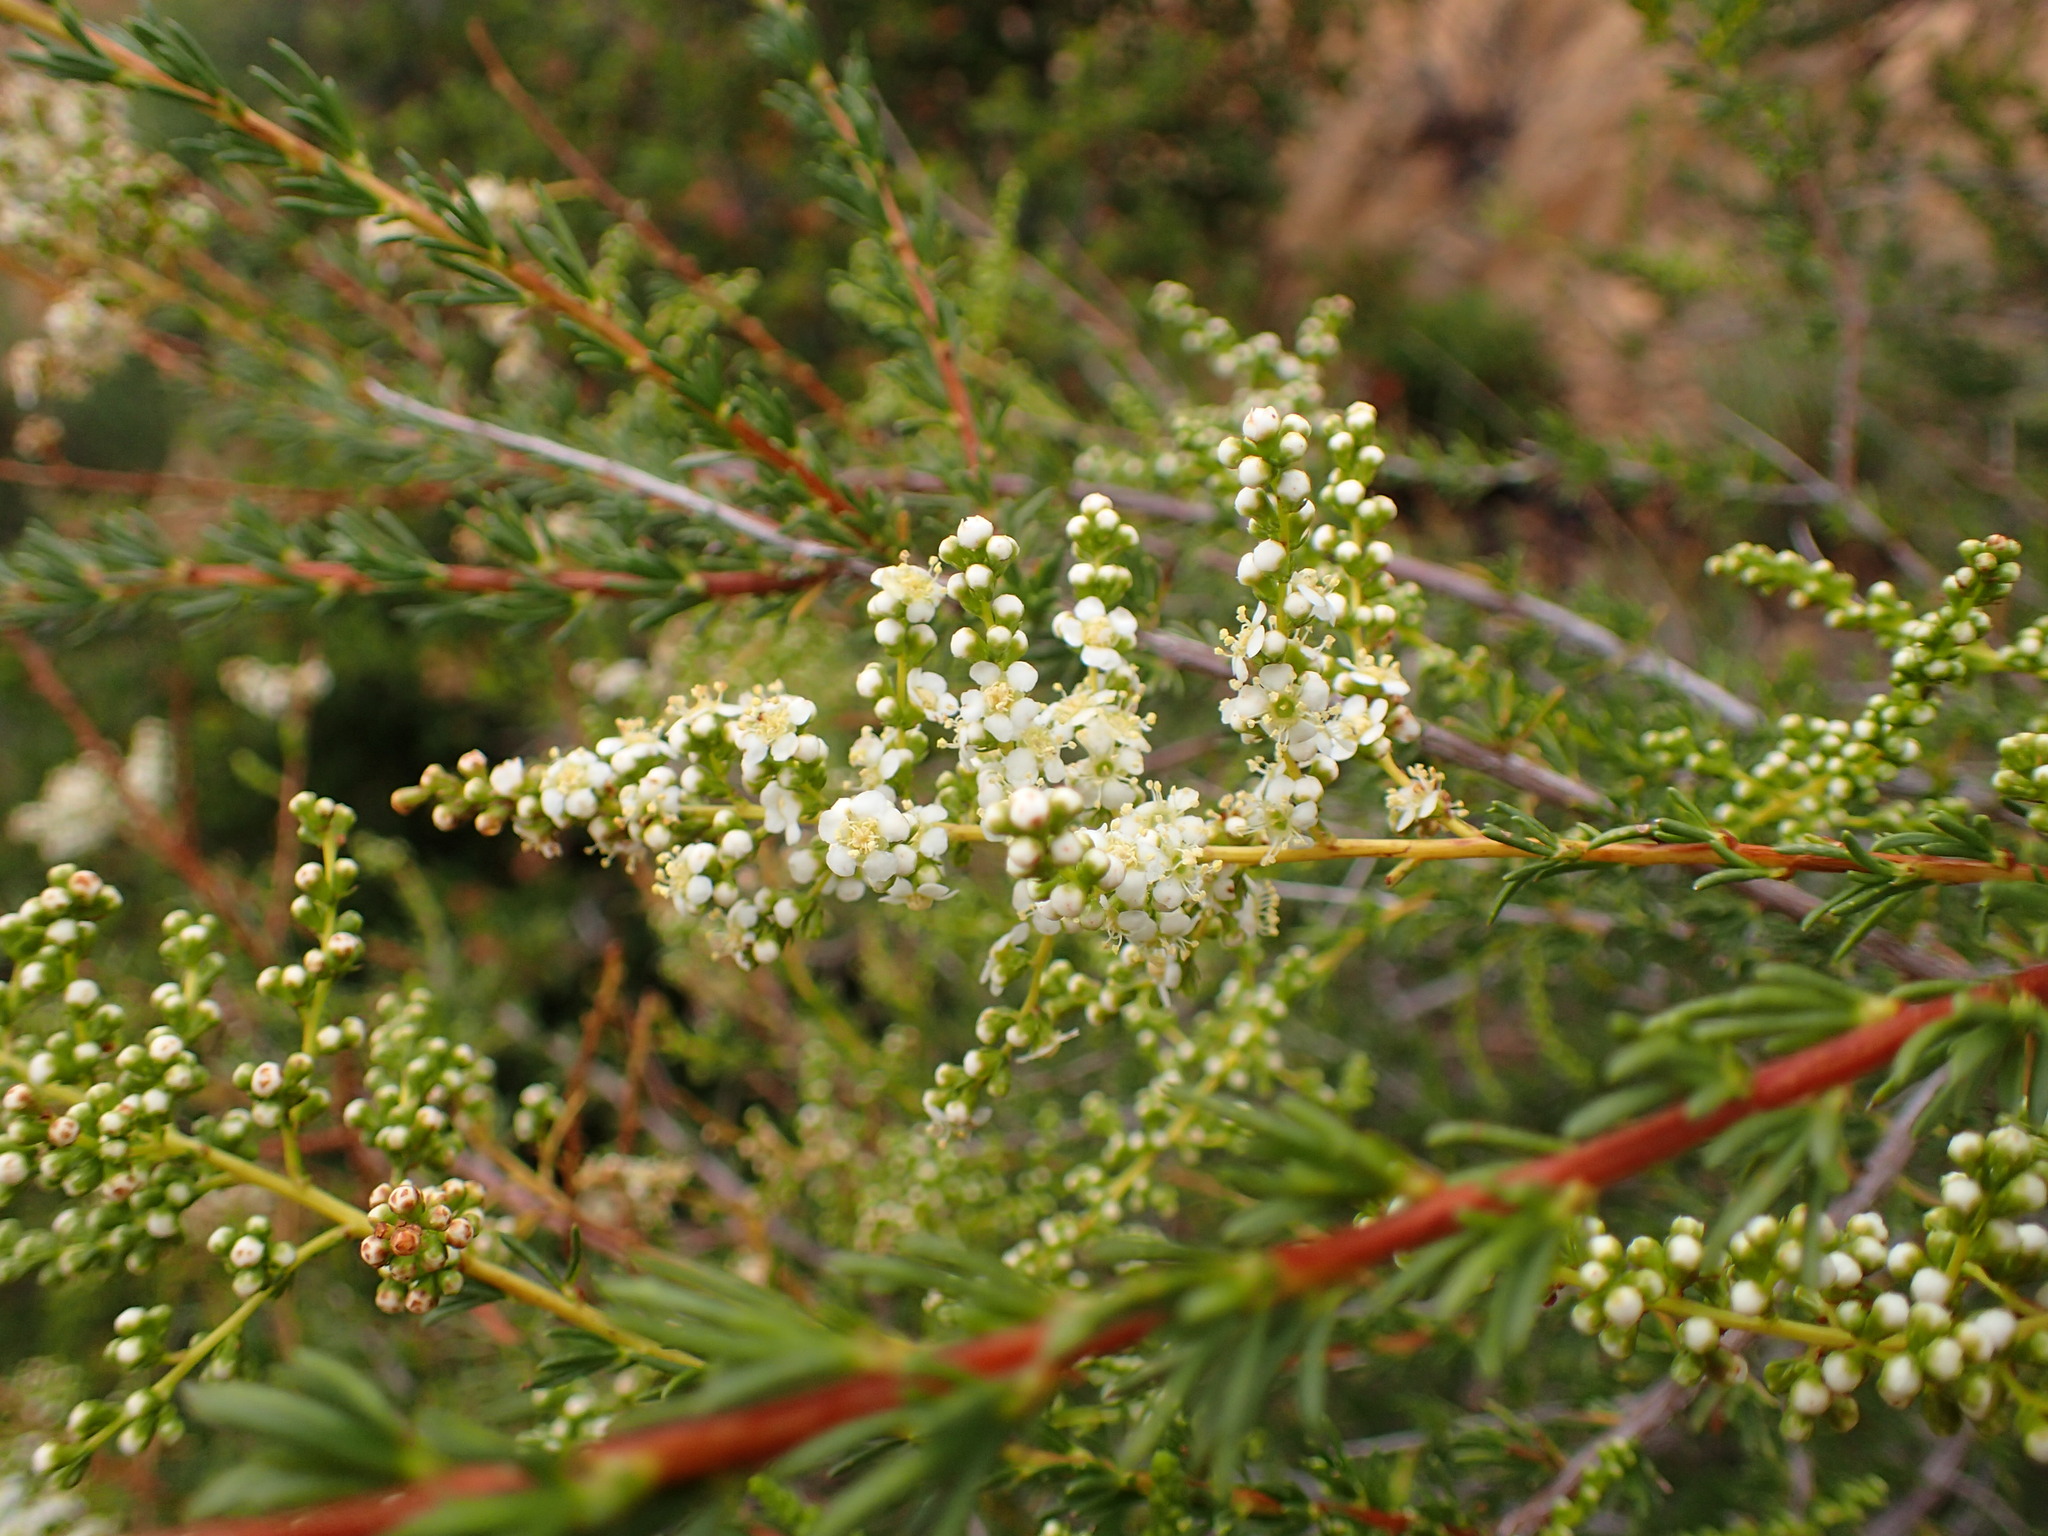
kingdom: Plantae
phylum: Tracheophyta
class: Magnoliopsida
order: Rosales
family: Rosaceae
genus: Adenostoma
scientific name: Adenostoma fasciculatum
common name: Chamise
